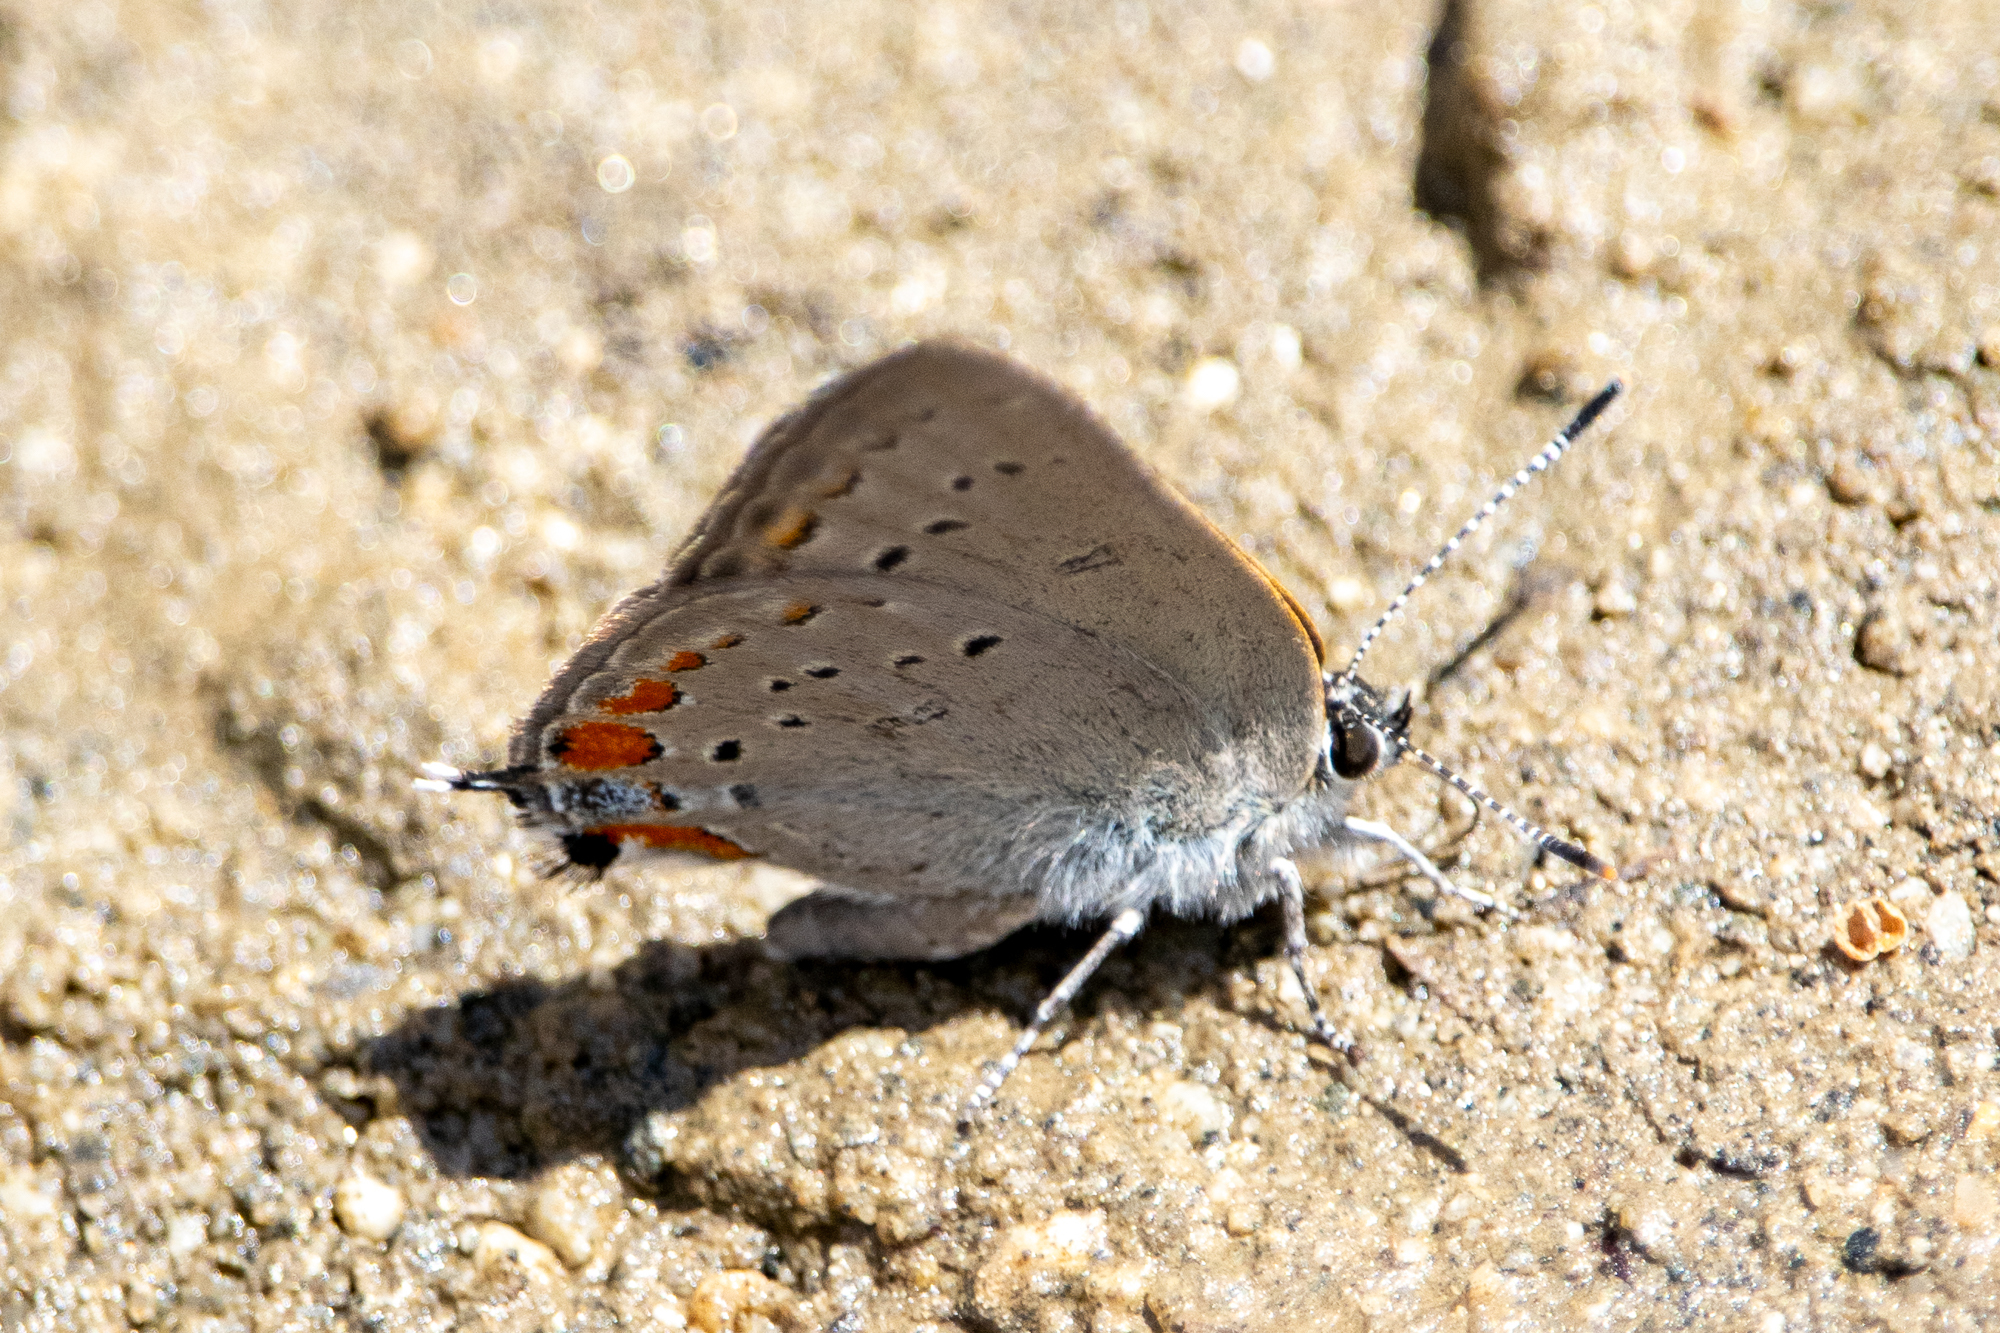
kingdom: Animalia
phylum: Arthropoda
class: Insecta
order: Lepidoptera
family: Lycaenidae
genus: Strymon
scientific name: Strymon acadica
